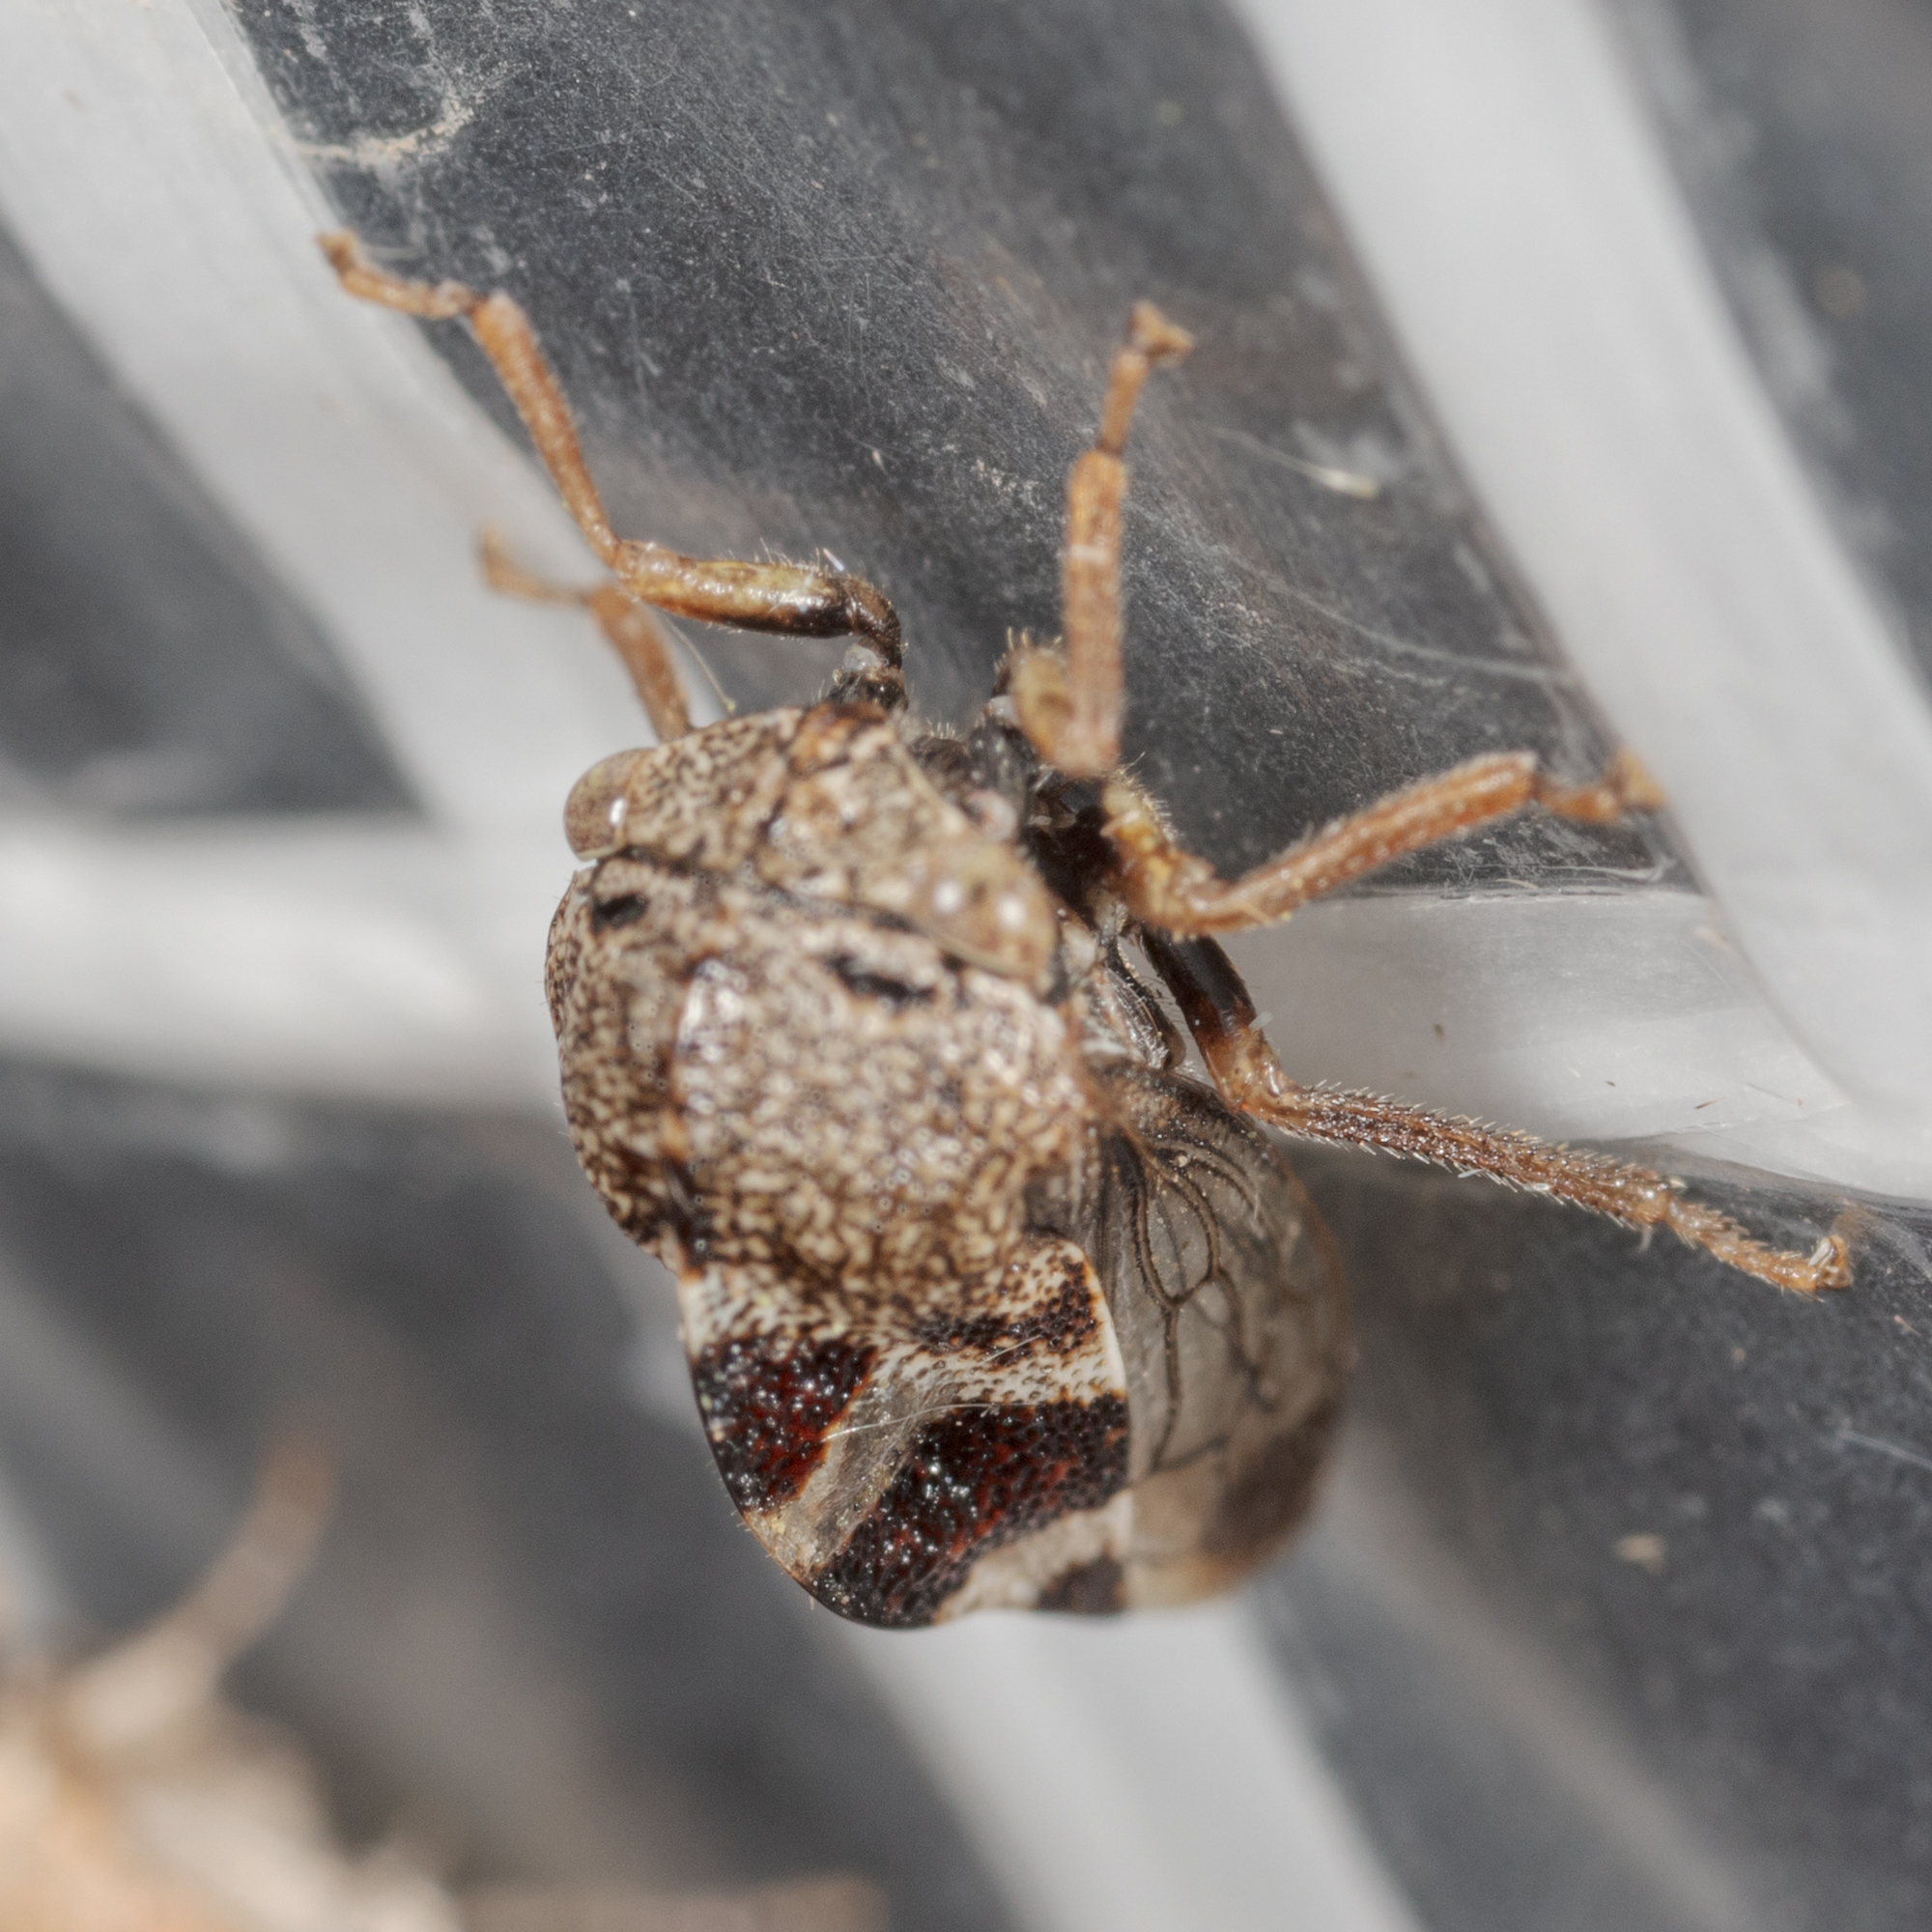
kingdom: Animalia
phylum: Arthropoda
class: Insecta
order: Hemiptera
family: Membracidae
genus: Cyrtolobus
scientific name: Cyrtolobus tuberosa
